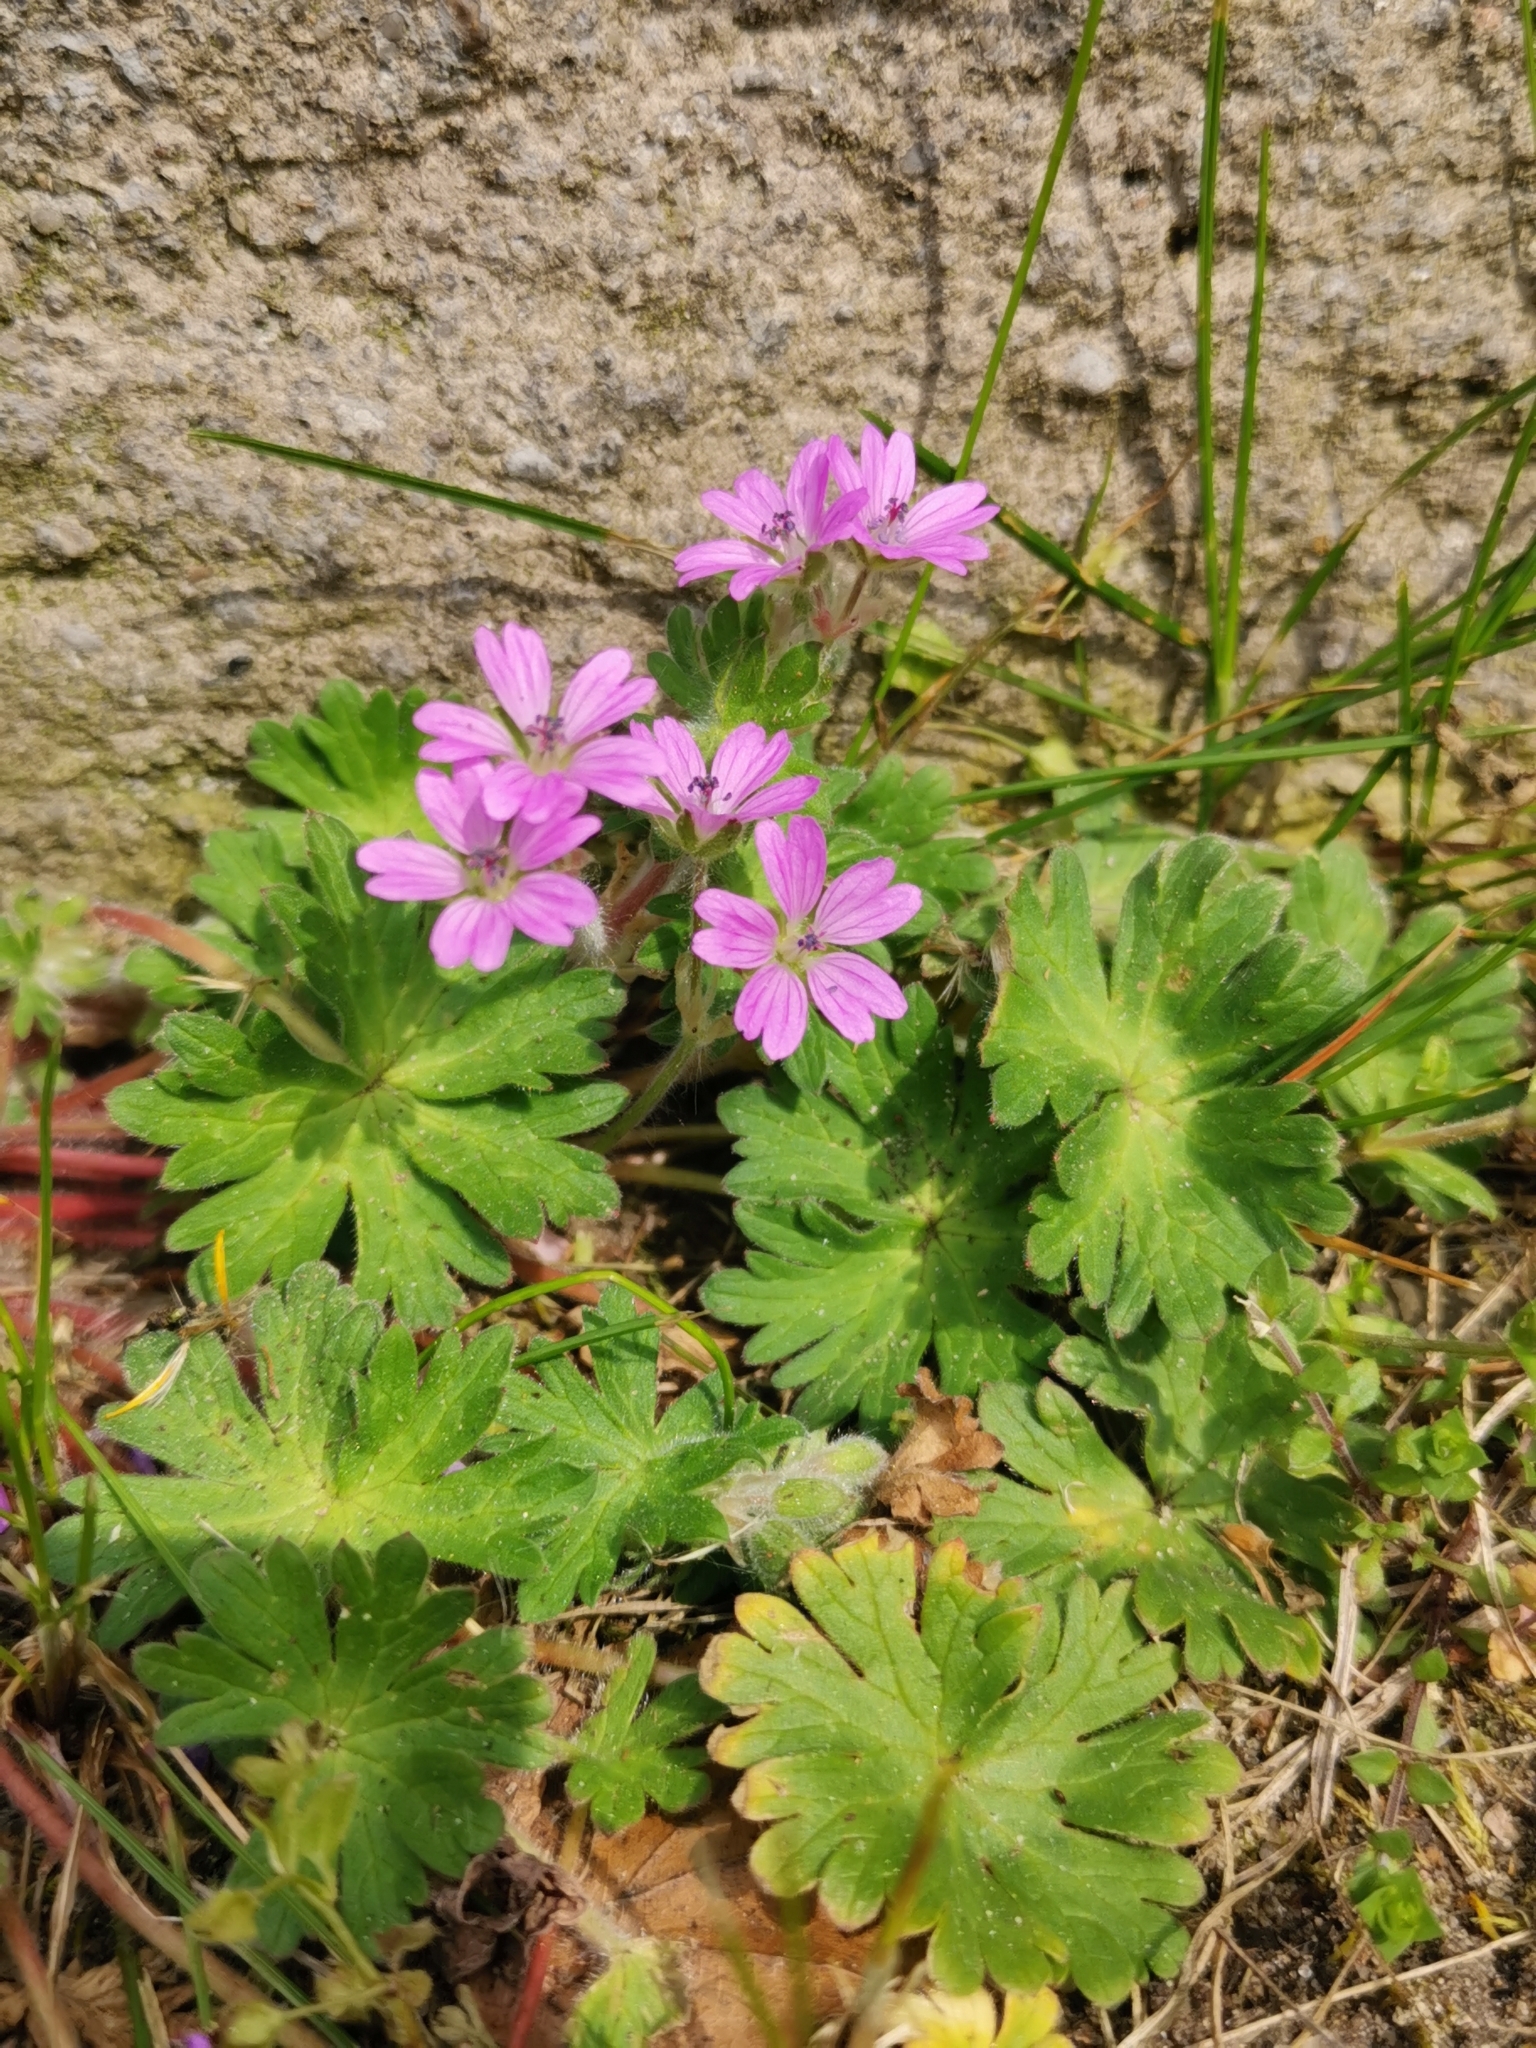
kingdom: Plantae
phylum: Tracheophyta
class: Magnoliopsida
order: Geraniales
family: Geraniaceae
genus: Geranium
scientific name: Geranium molle
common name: Dove's-foot crane's-bill
